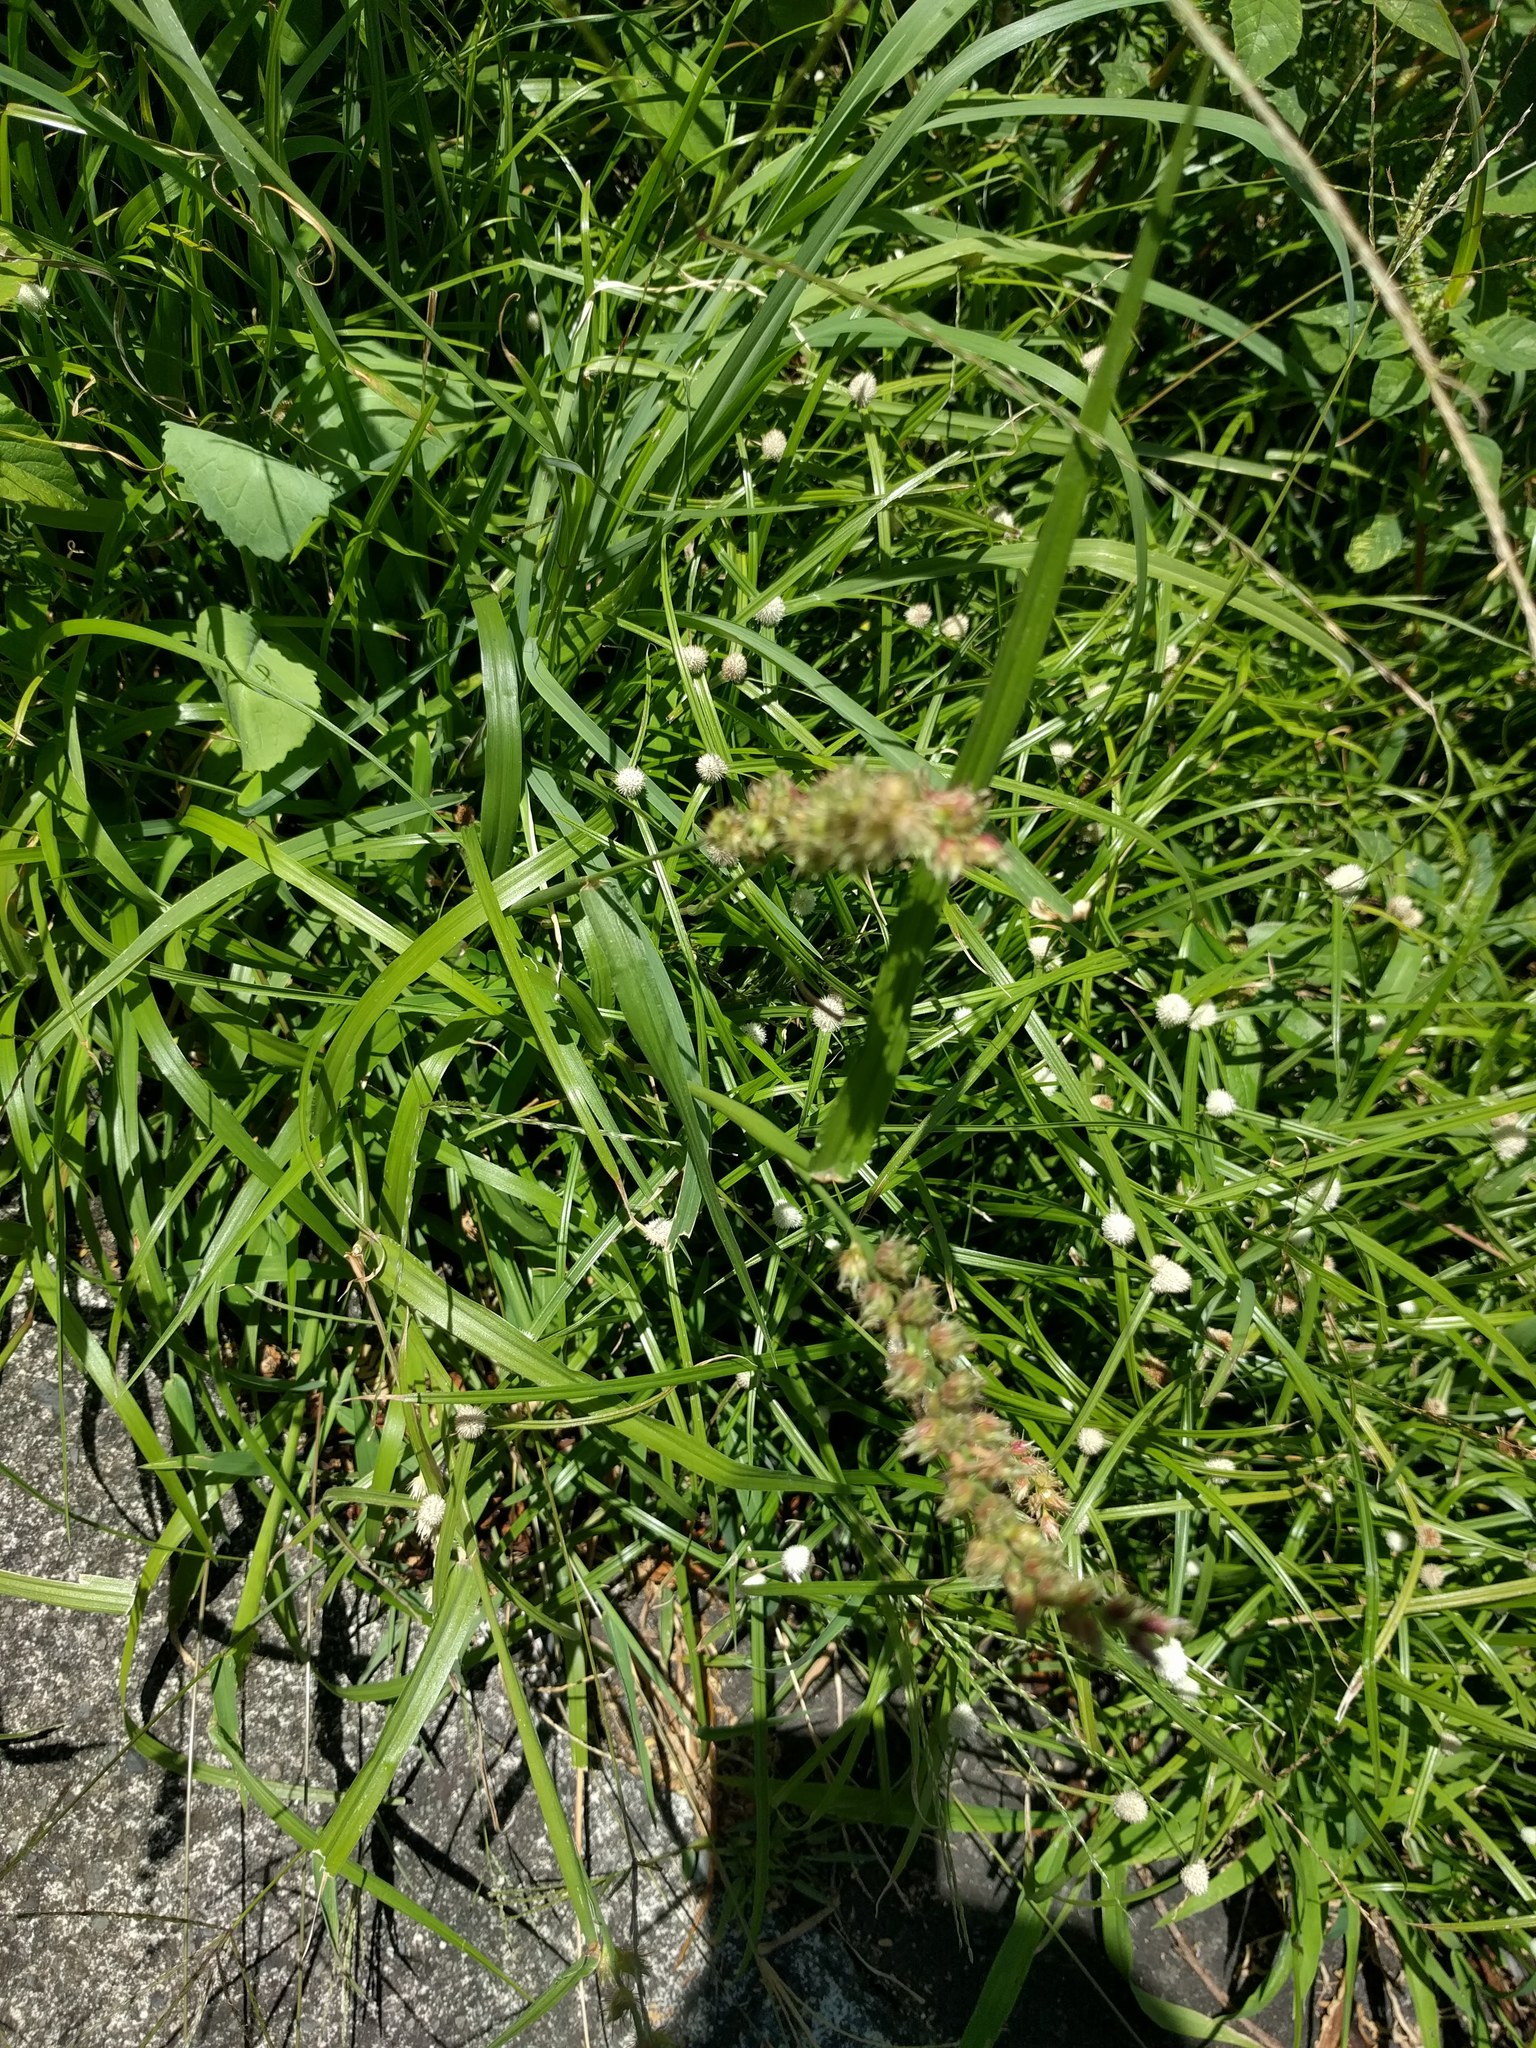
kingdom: Plantae
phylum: Tracheophyta
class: Liliopsida
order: Poales
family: Poaceae
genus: Cenchrus
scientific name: Cenchrus echinatus
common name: Southern sandbur
